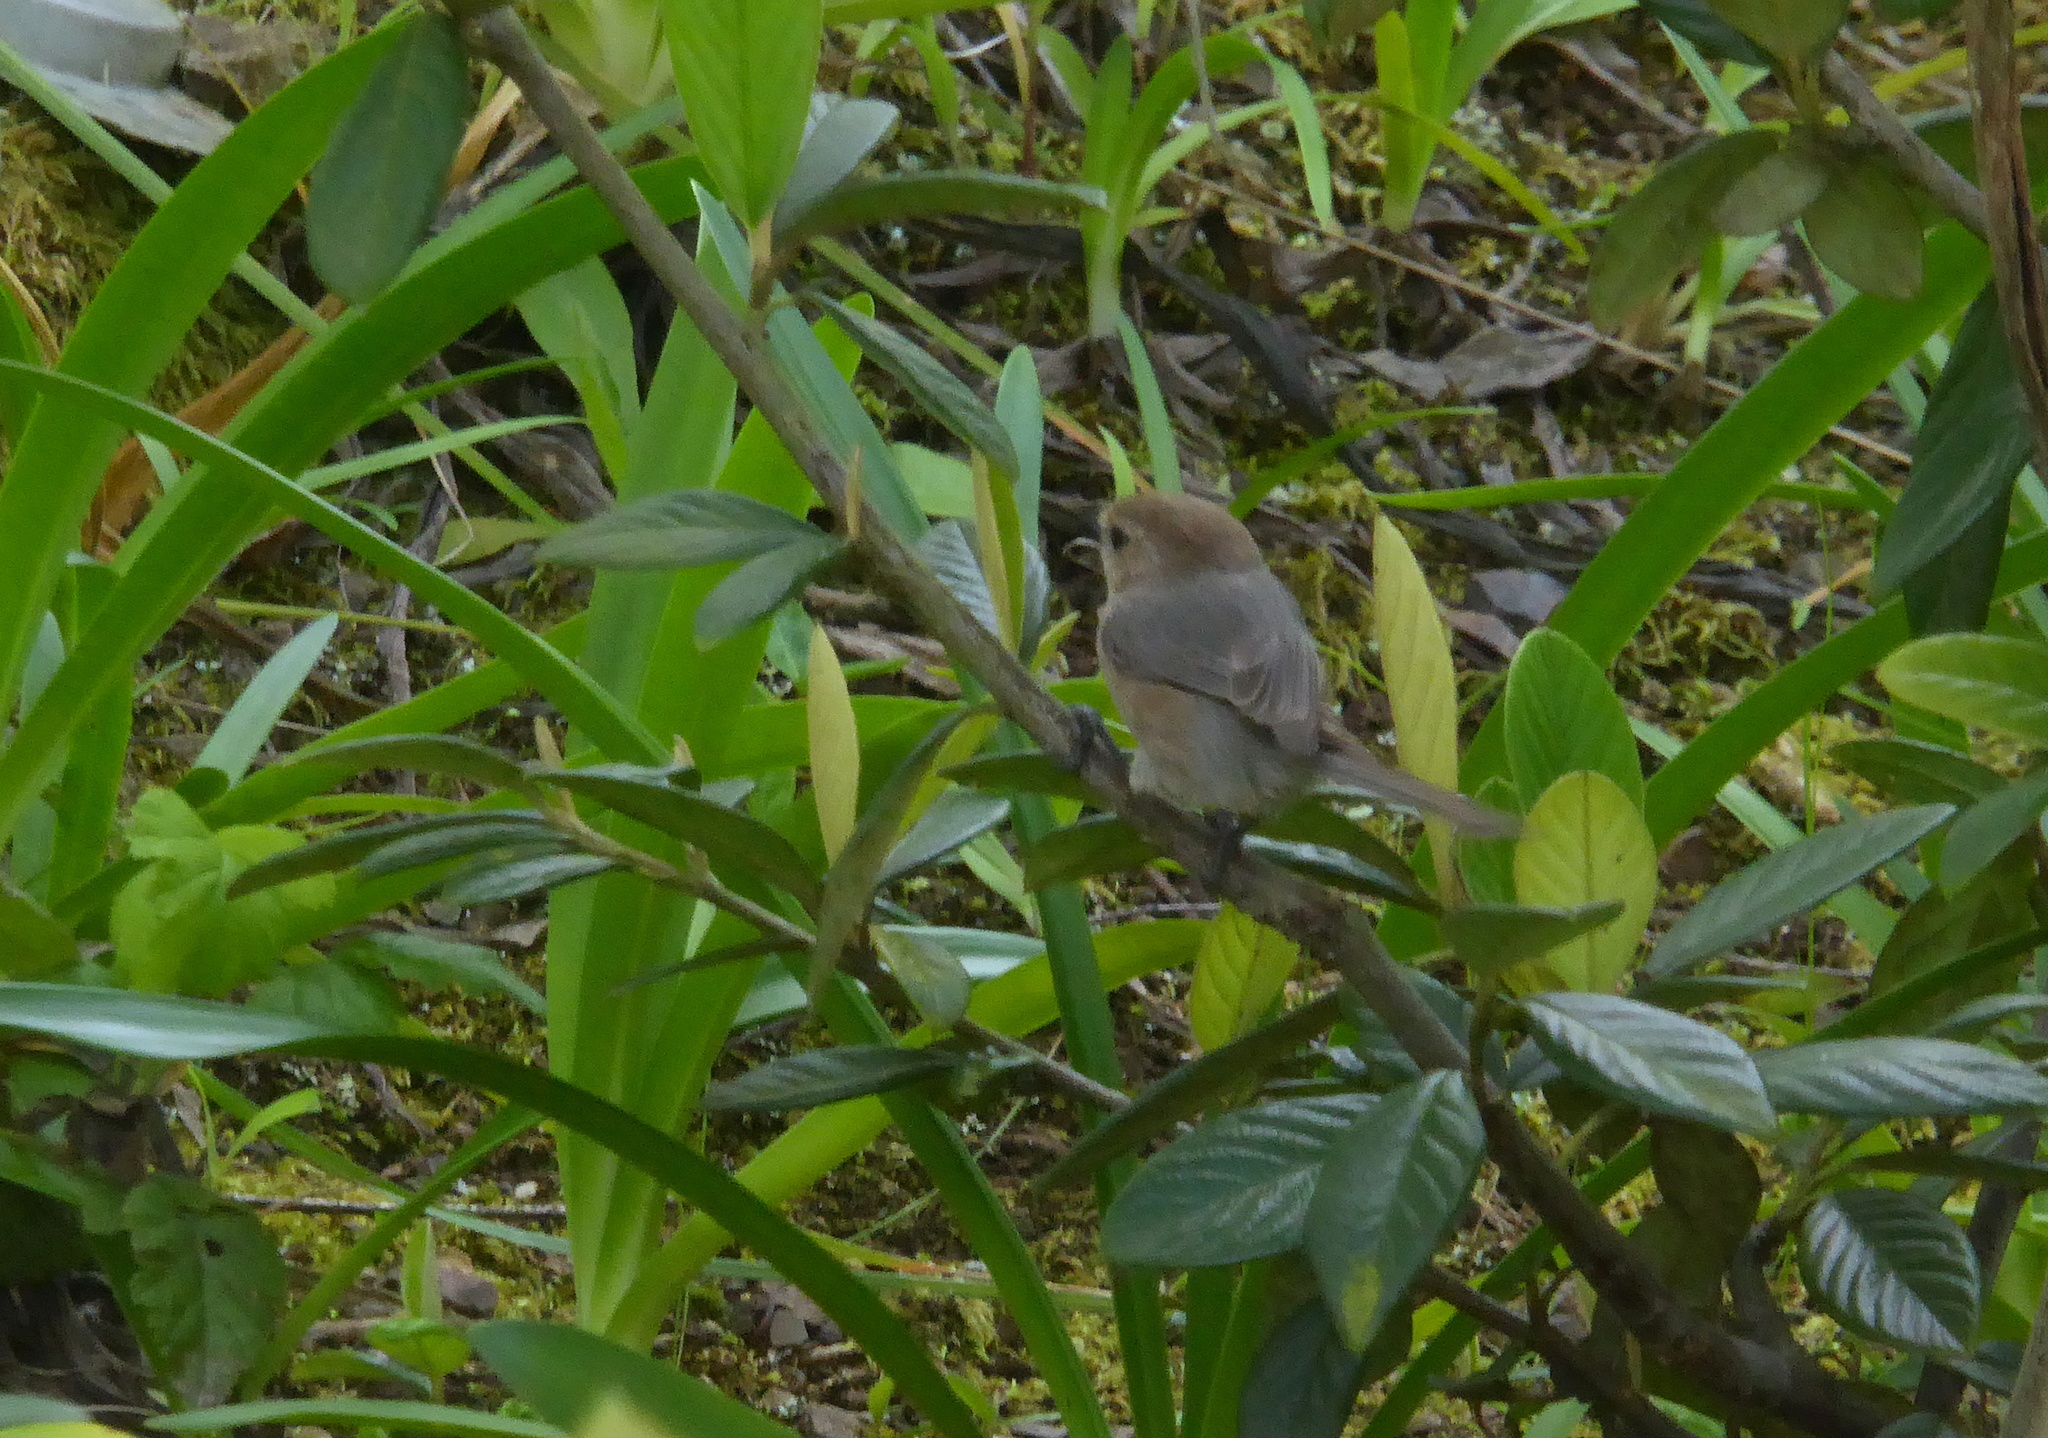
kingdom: Animalia
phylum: Chordata
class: Aves
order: Passeriformes
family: Aegithalidae
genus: Psaltriparus
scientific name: Psaltriparus minimus
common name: American bushtit
